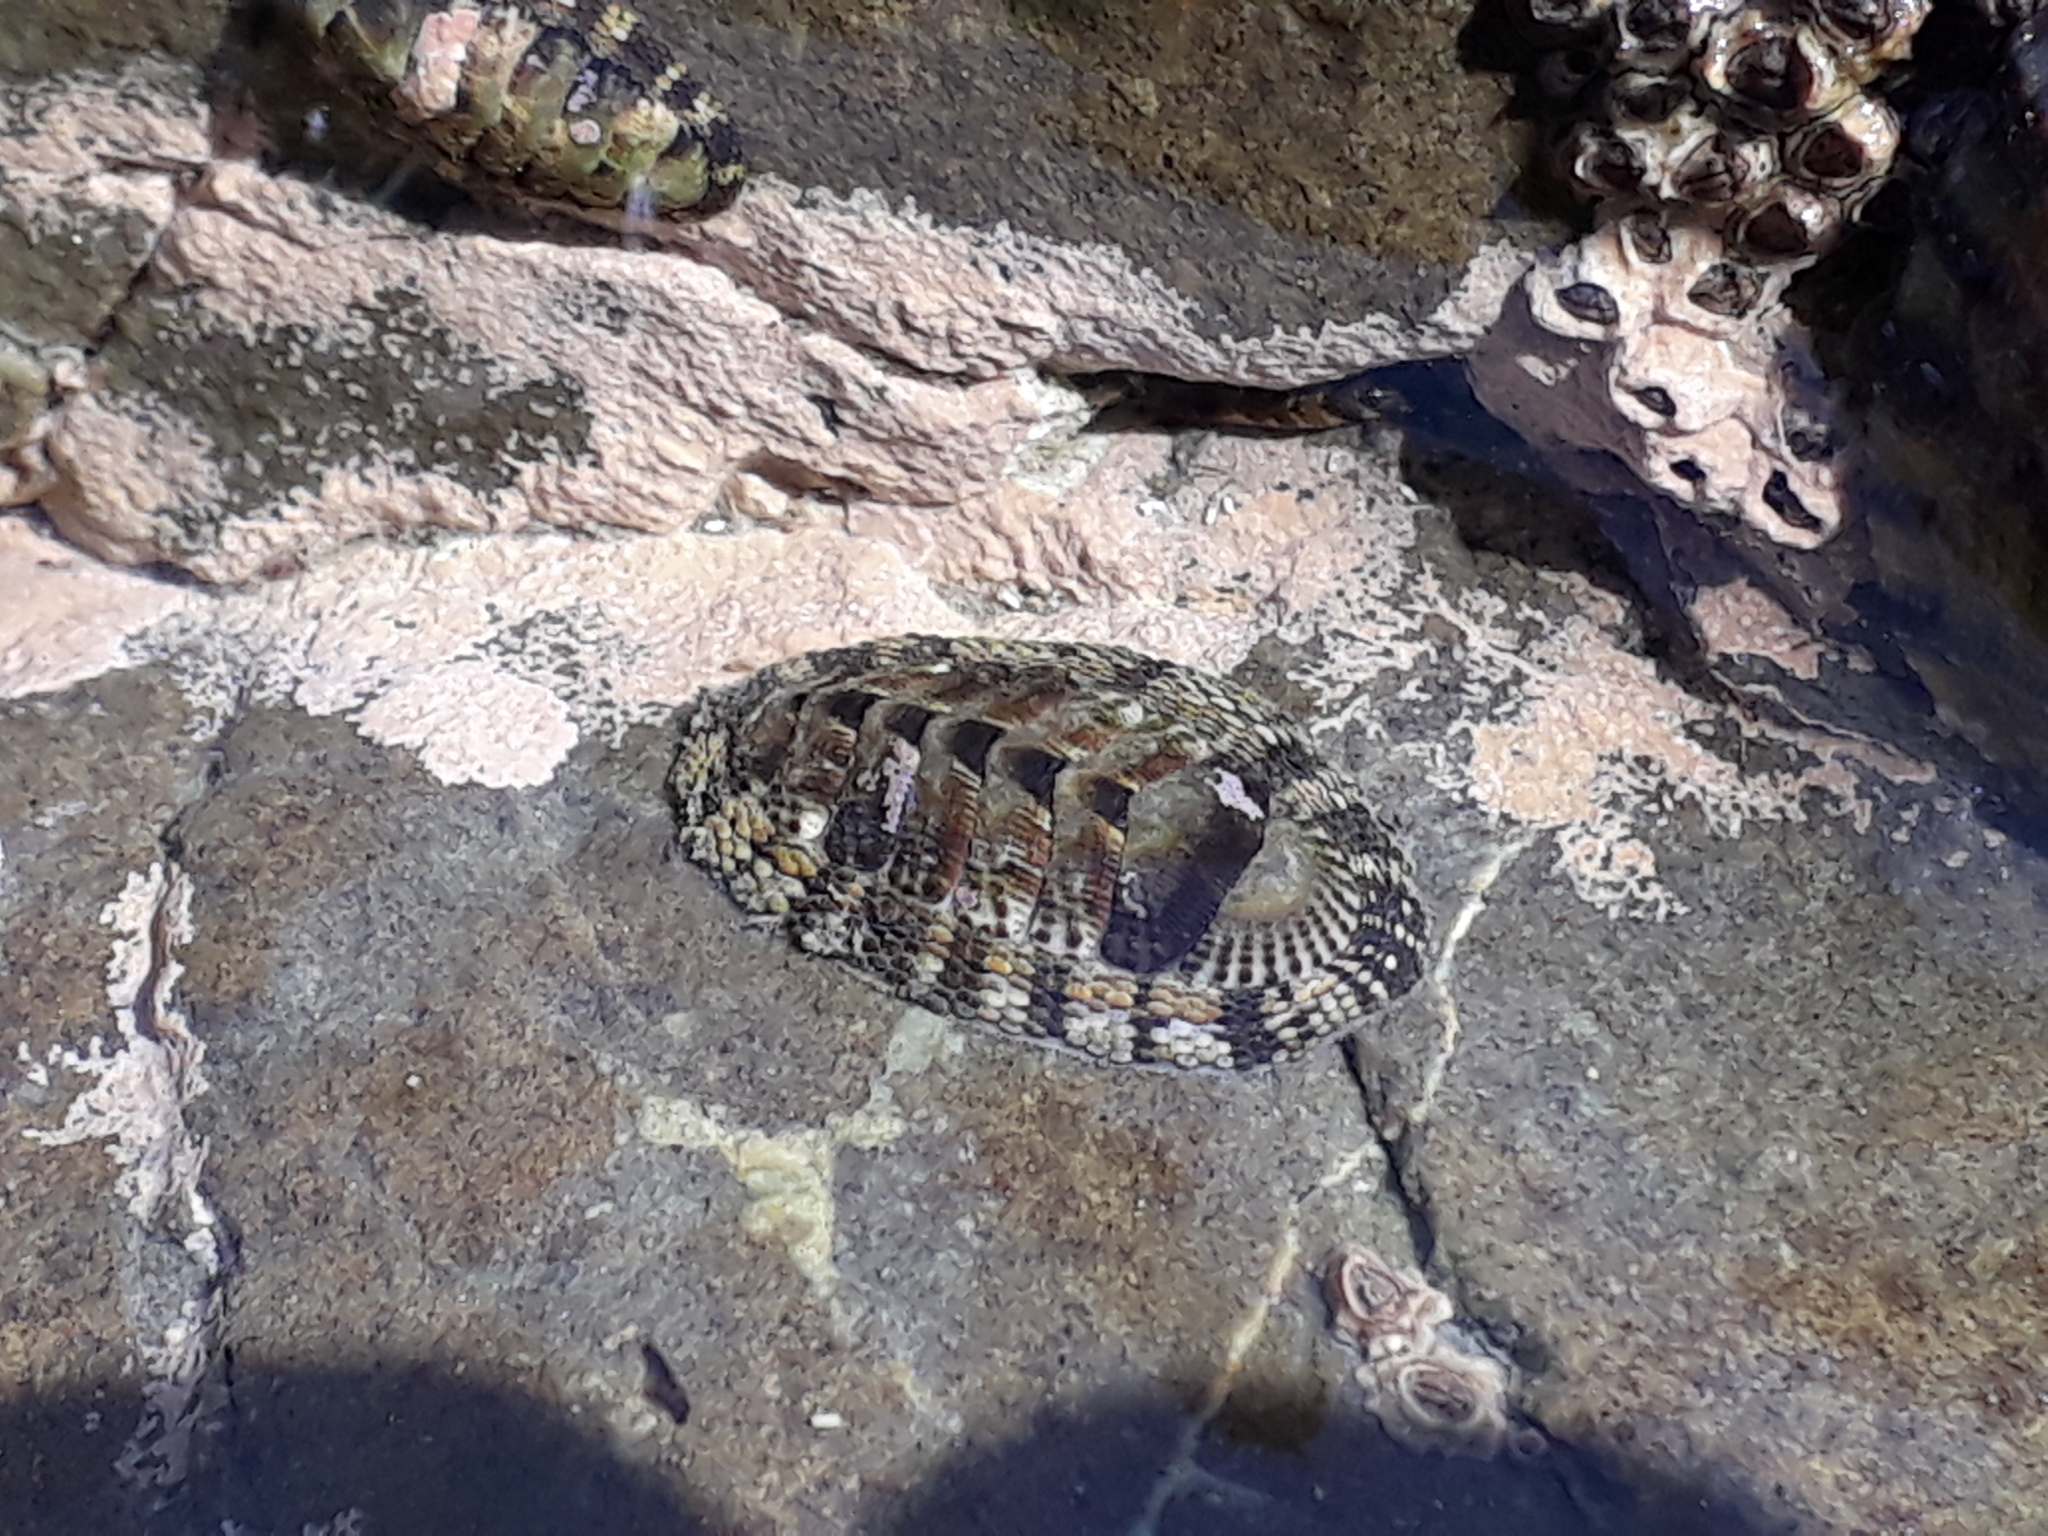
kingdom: Animalia
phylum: Mollusca
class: Polyplacophora
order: Chitonida
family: Chitonidae
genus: Sypharochiton
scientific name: Sypharochiton pelliserpentis
